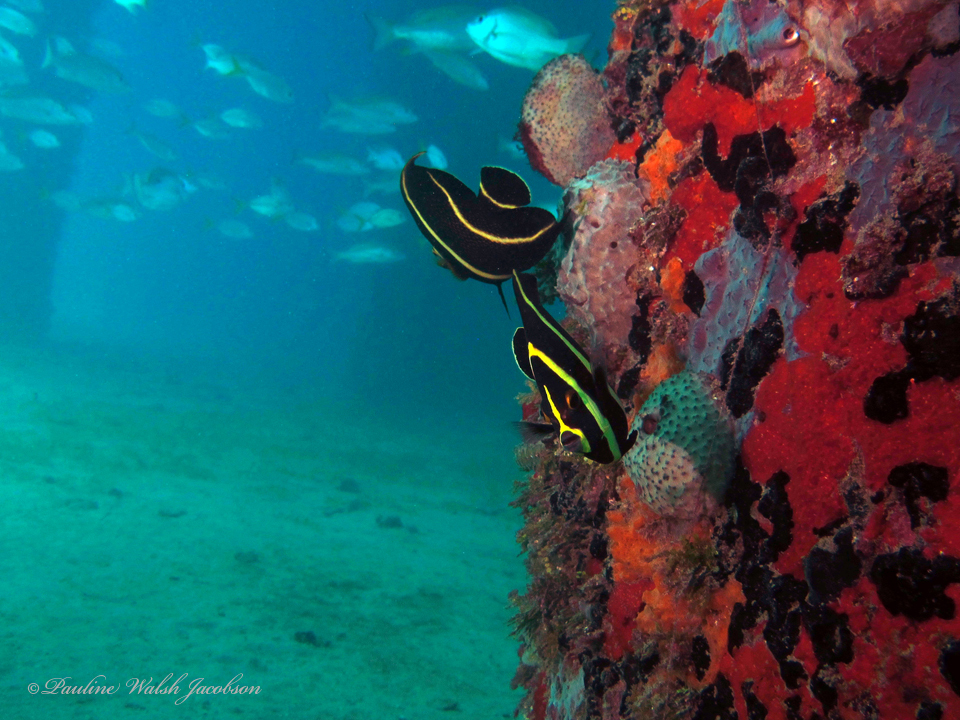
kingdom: Animalia
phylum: Chordata
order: Perciformes
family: Pomacanthidae
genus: Pomacanthus
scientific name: Pomacanthus paru
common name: French angelfish
